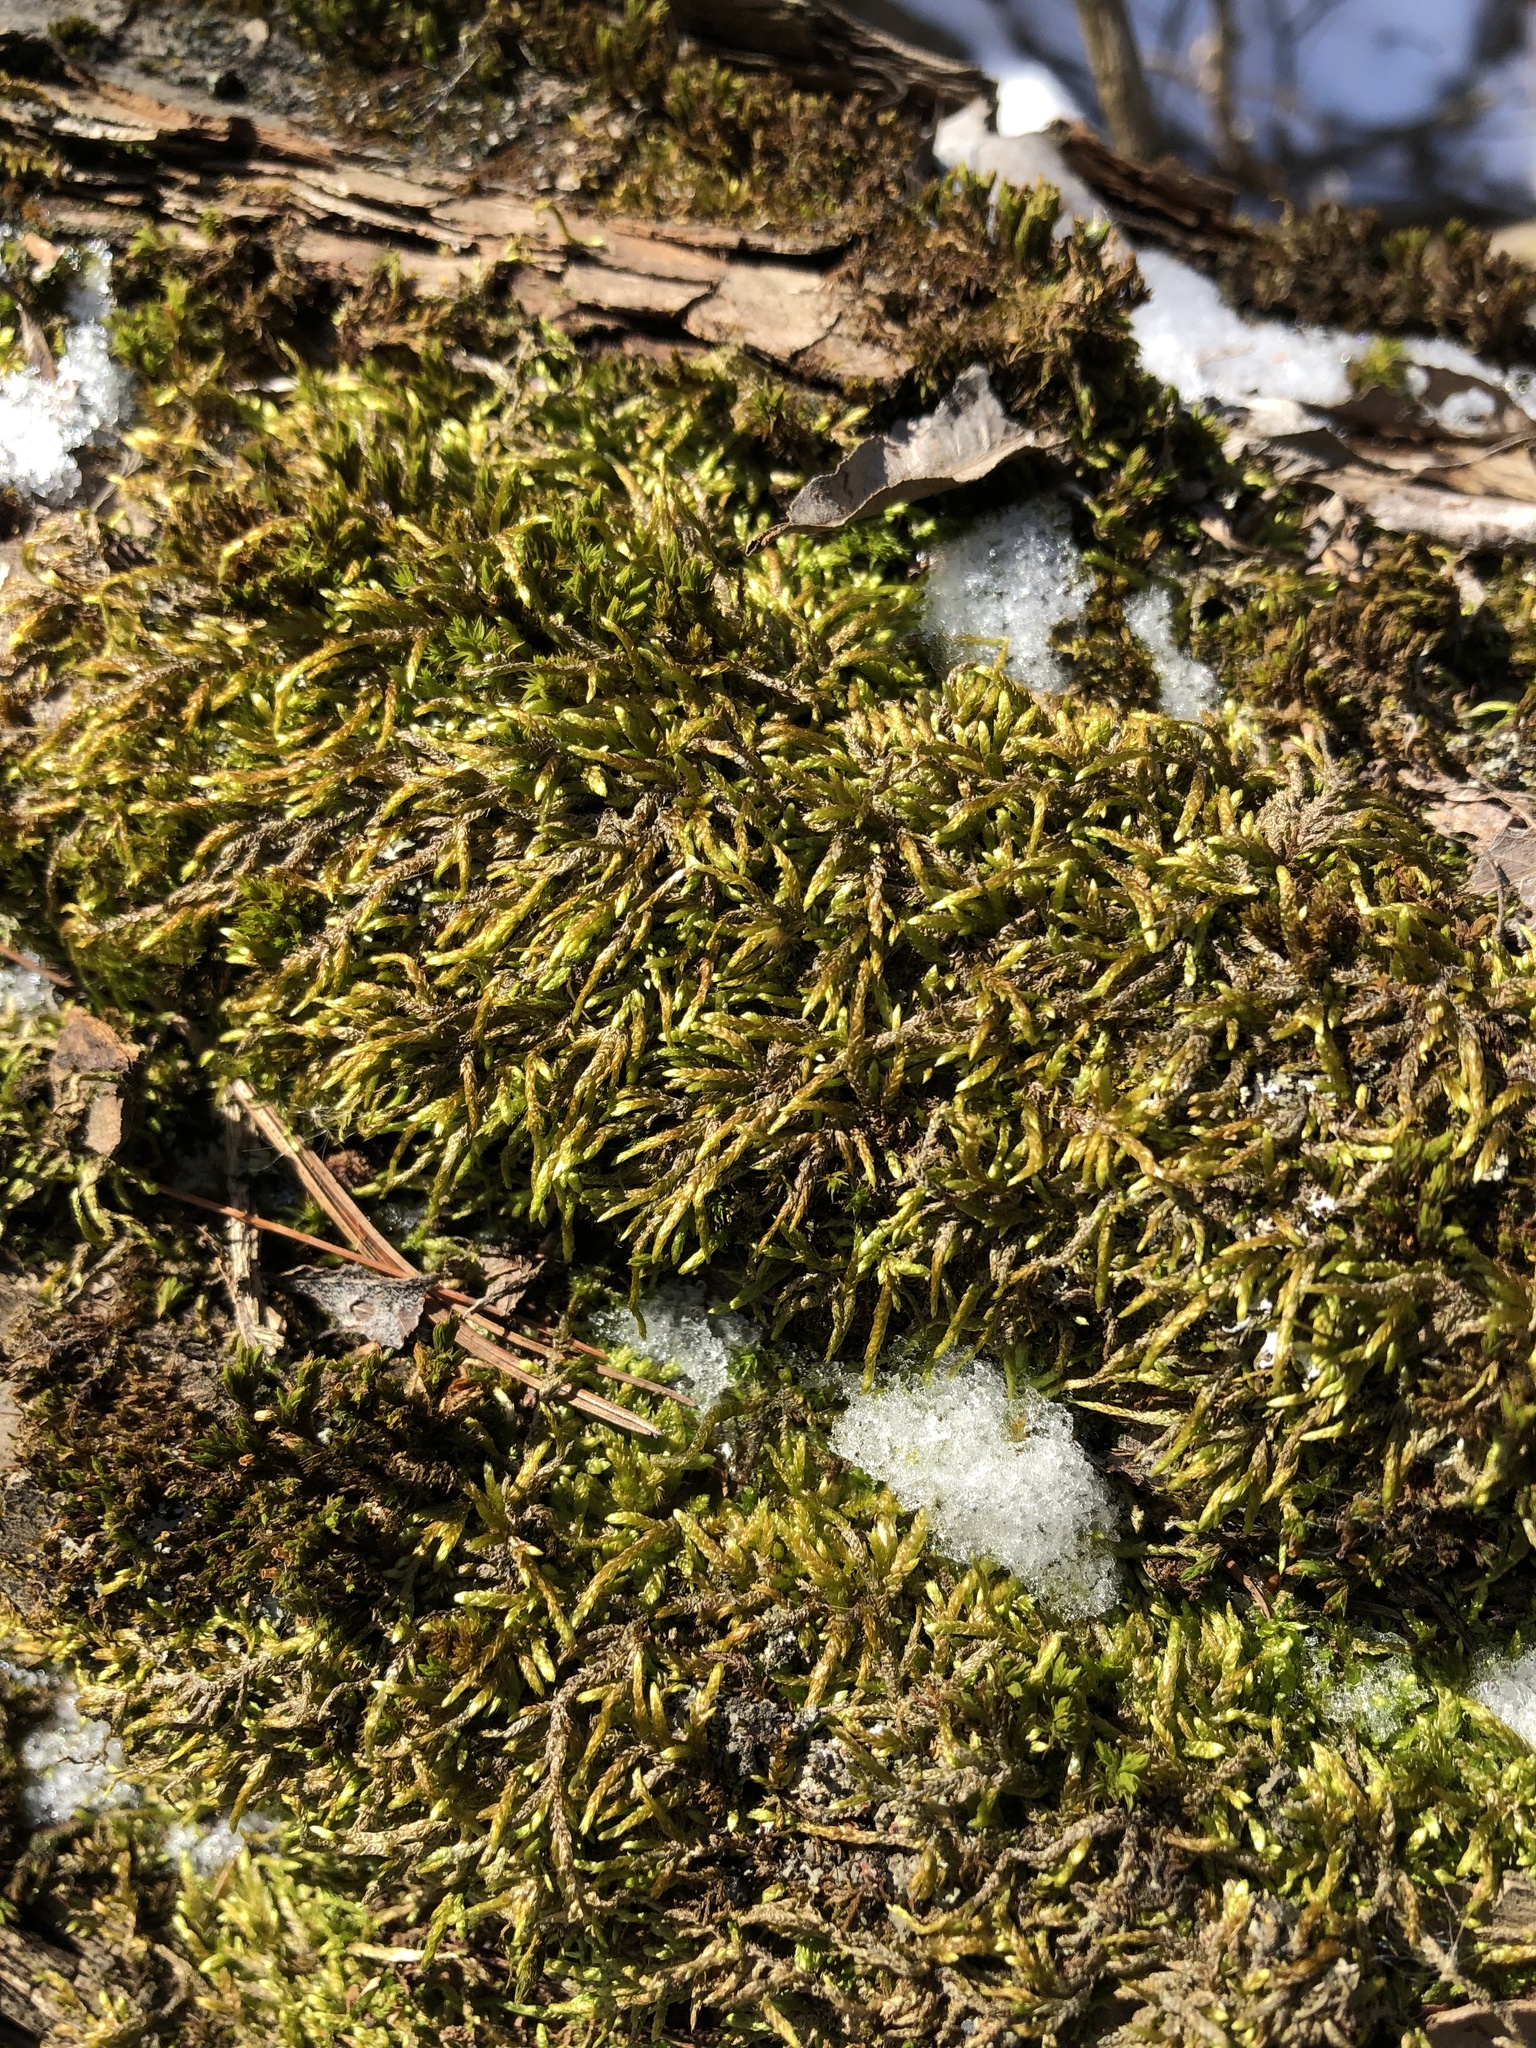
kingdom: Plantae
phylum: Bryophyta
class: Bryopsida
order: Hypnales
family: Entodontaceae
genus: Entodon
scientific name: Entodon seductrix
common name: Round-stemmed entodon moss
